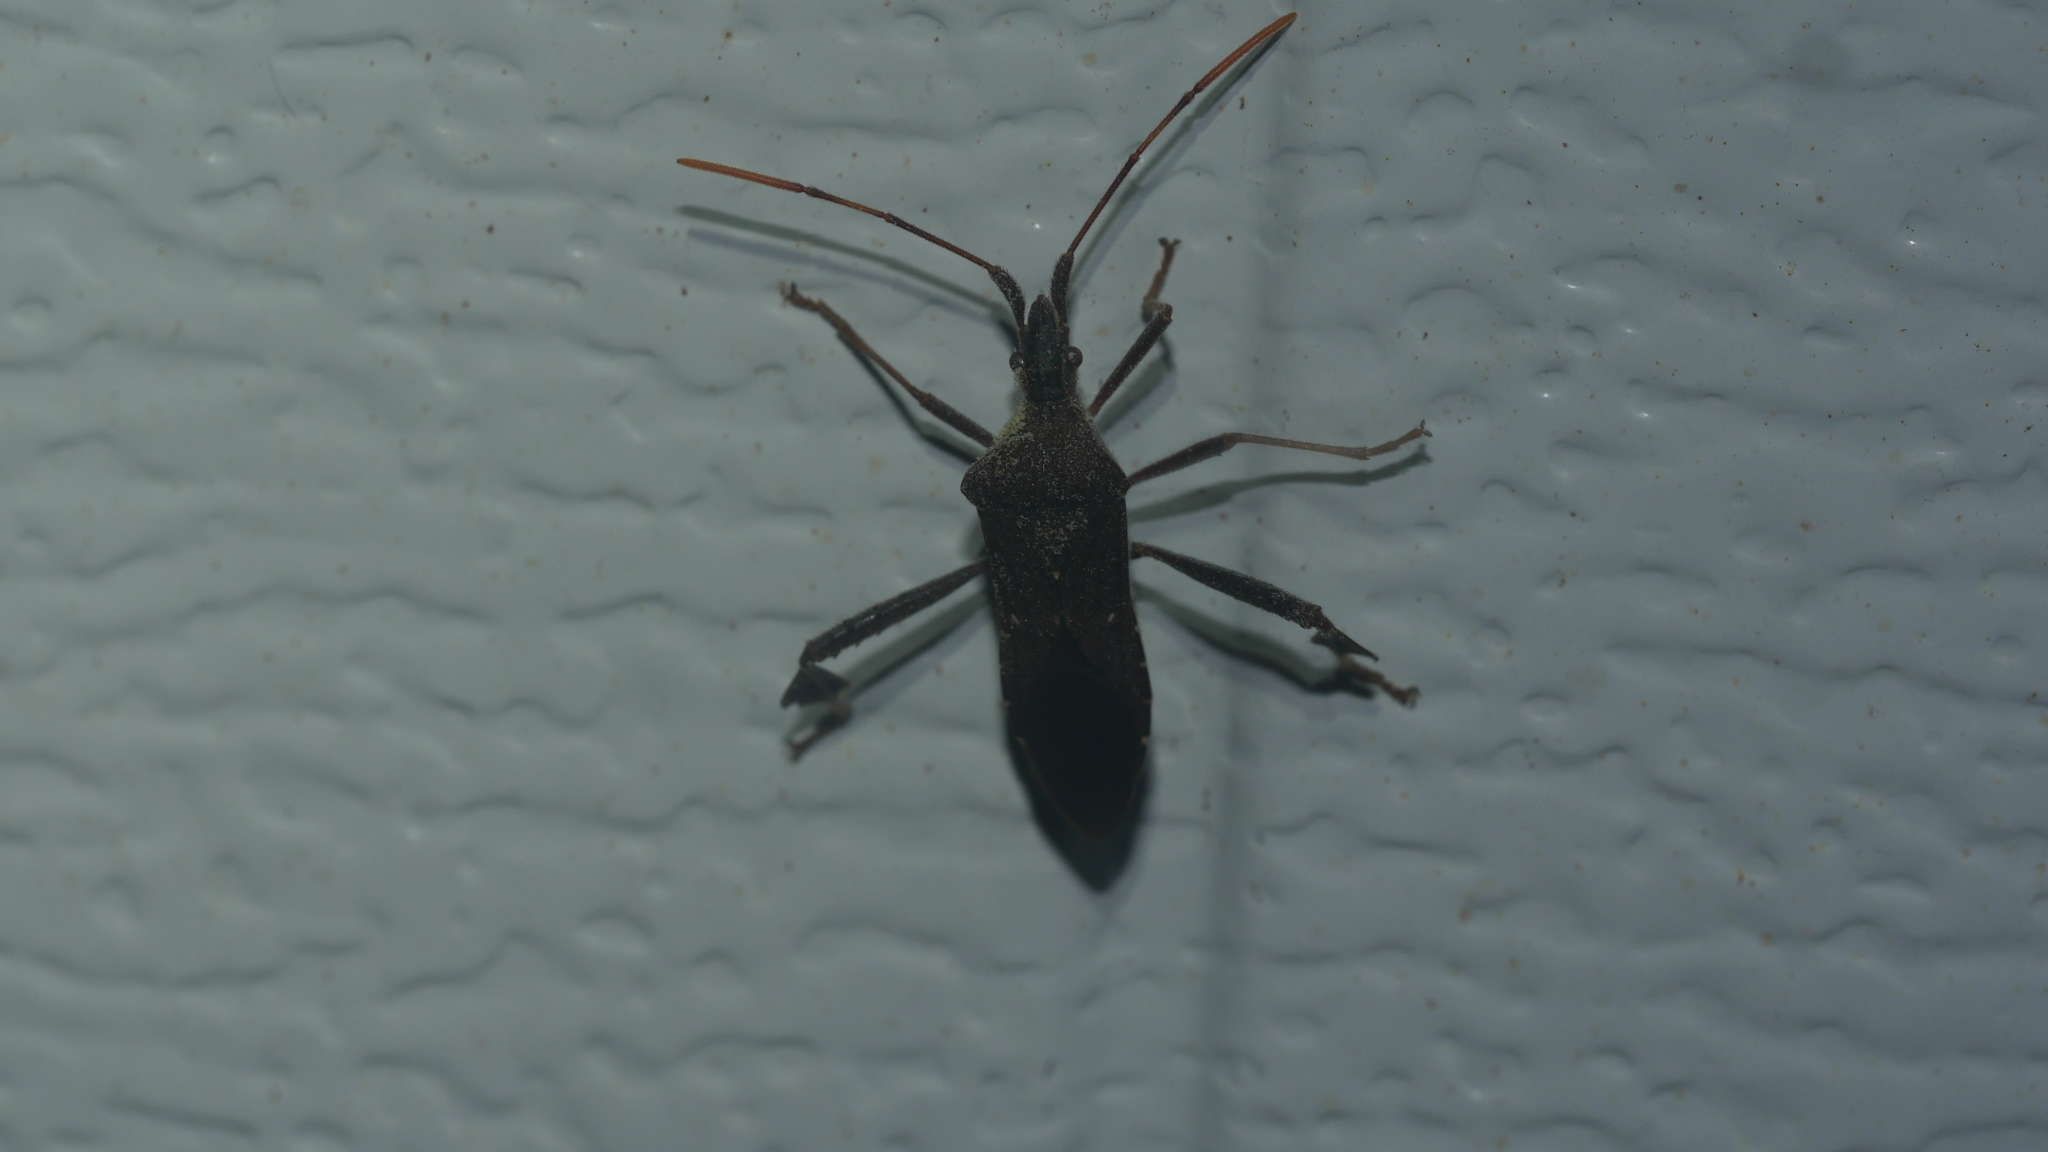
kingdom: Animalia
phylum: Arthropoda
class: Insecta
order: Hemiptera
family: Coreidae
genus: Leptoglossus
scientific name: Leptoglossus oppositus
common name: Northern leaf-footed bug
